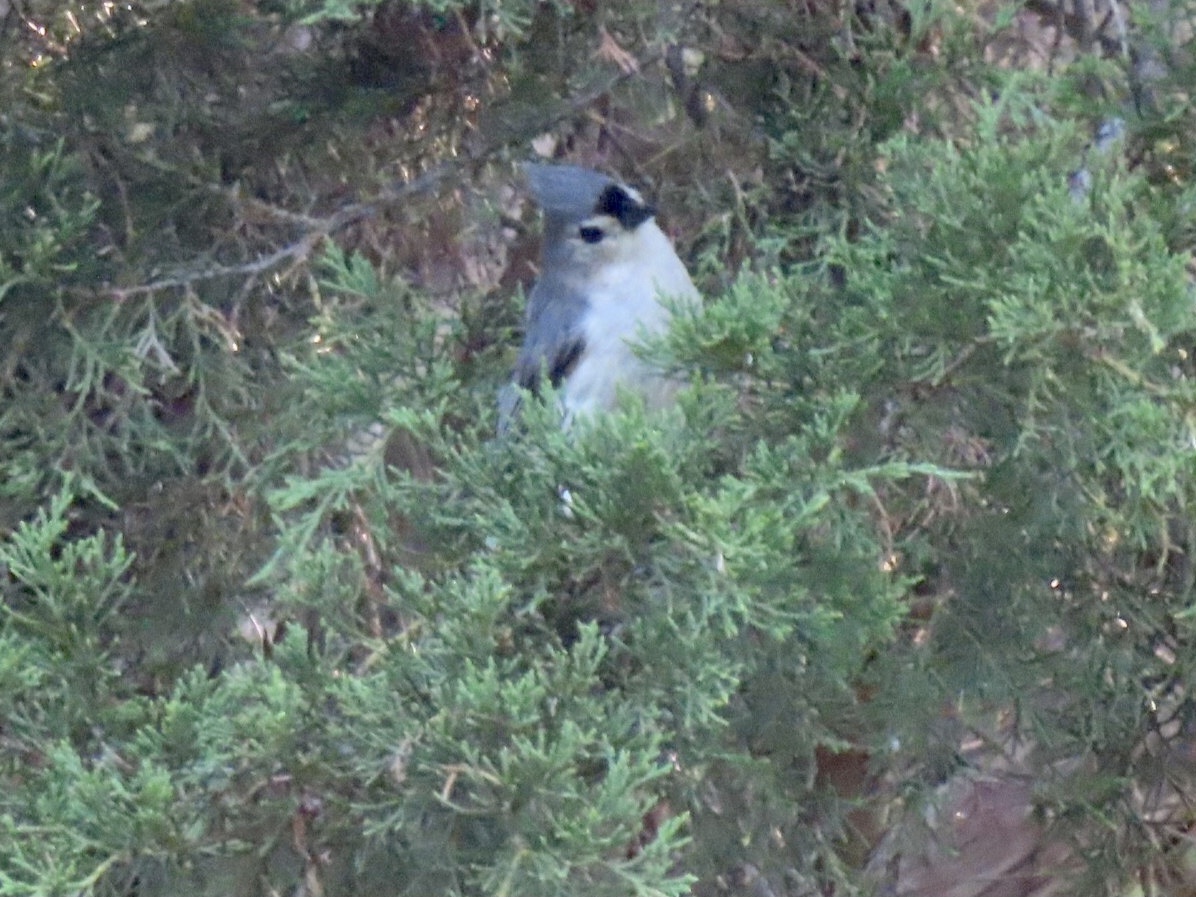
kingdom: Animalia
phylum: Chordata
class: Aves
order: Passeriformes
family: Paridae
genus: Baeolophus
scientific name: Baeolophus bicolor
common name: Tufted titmouse
